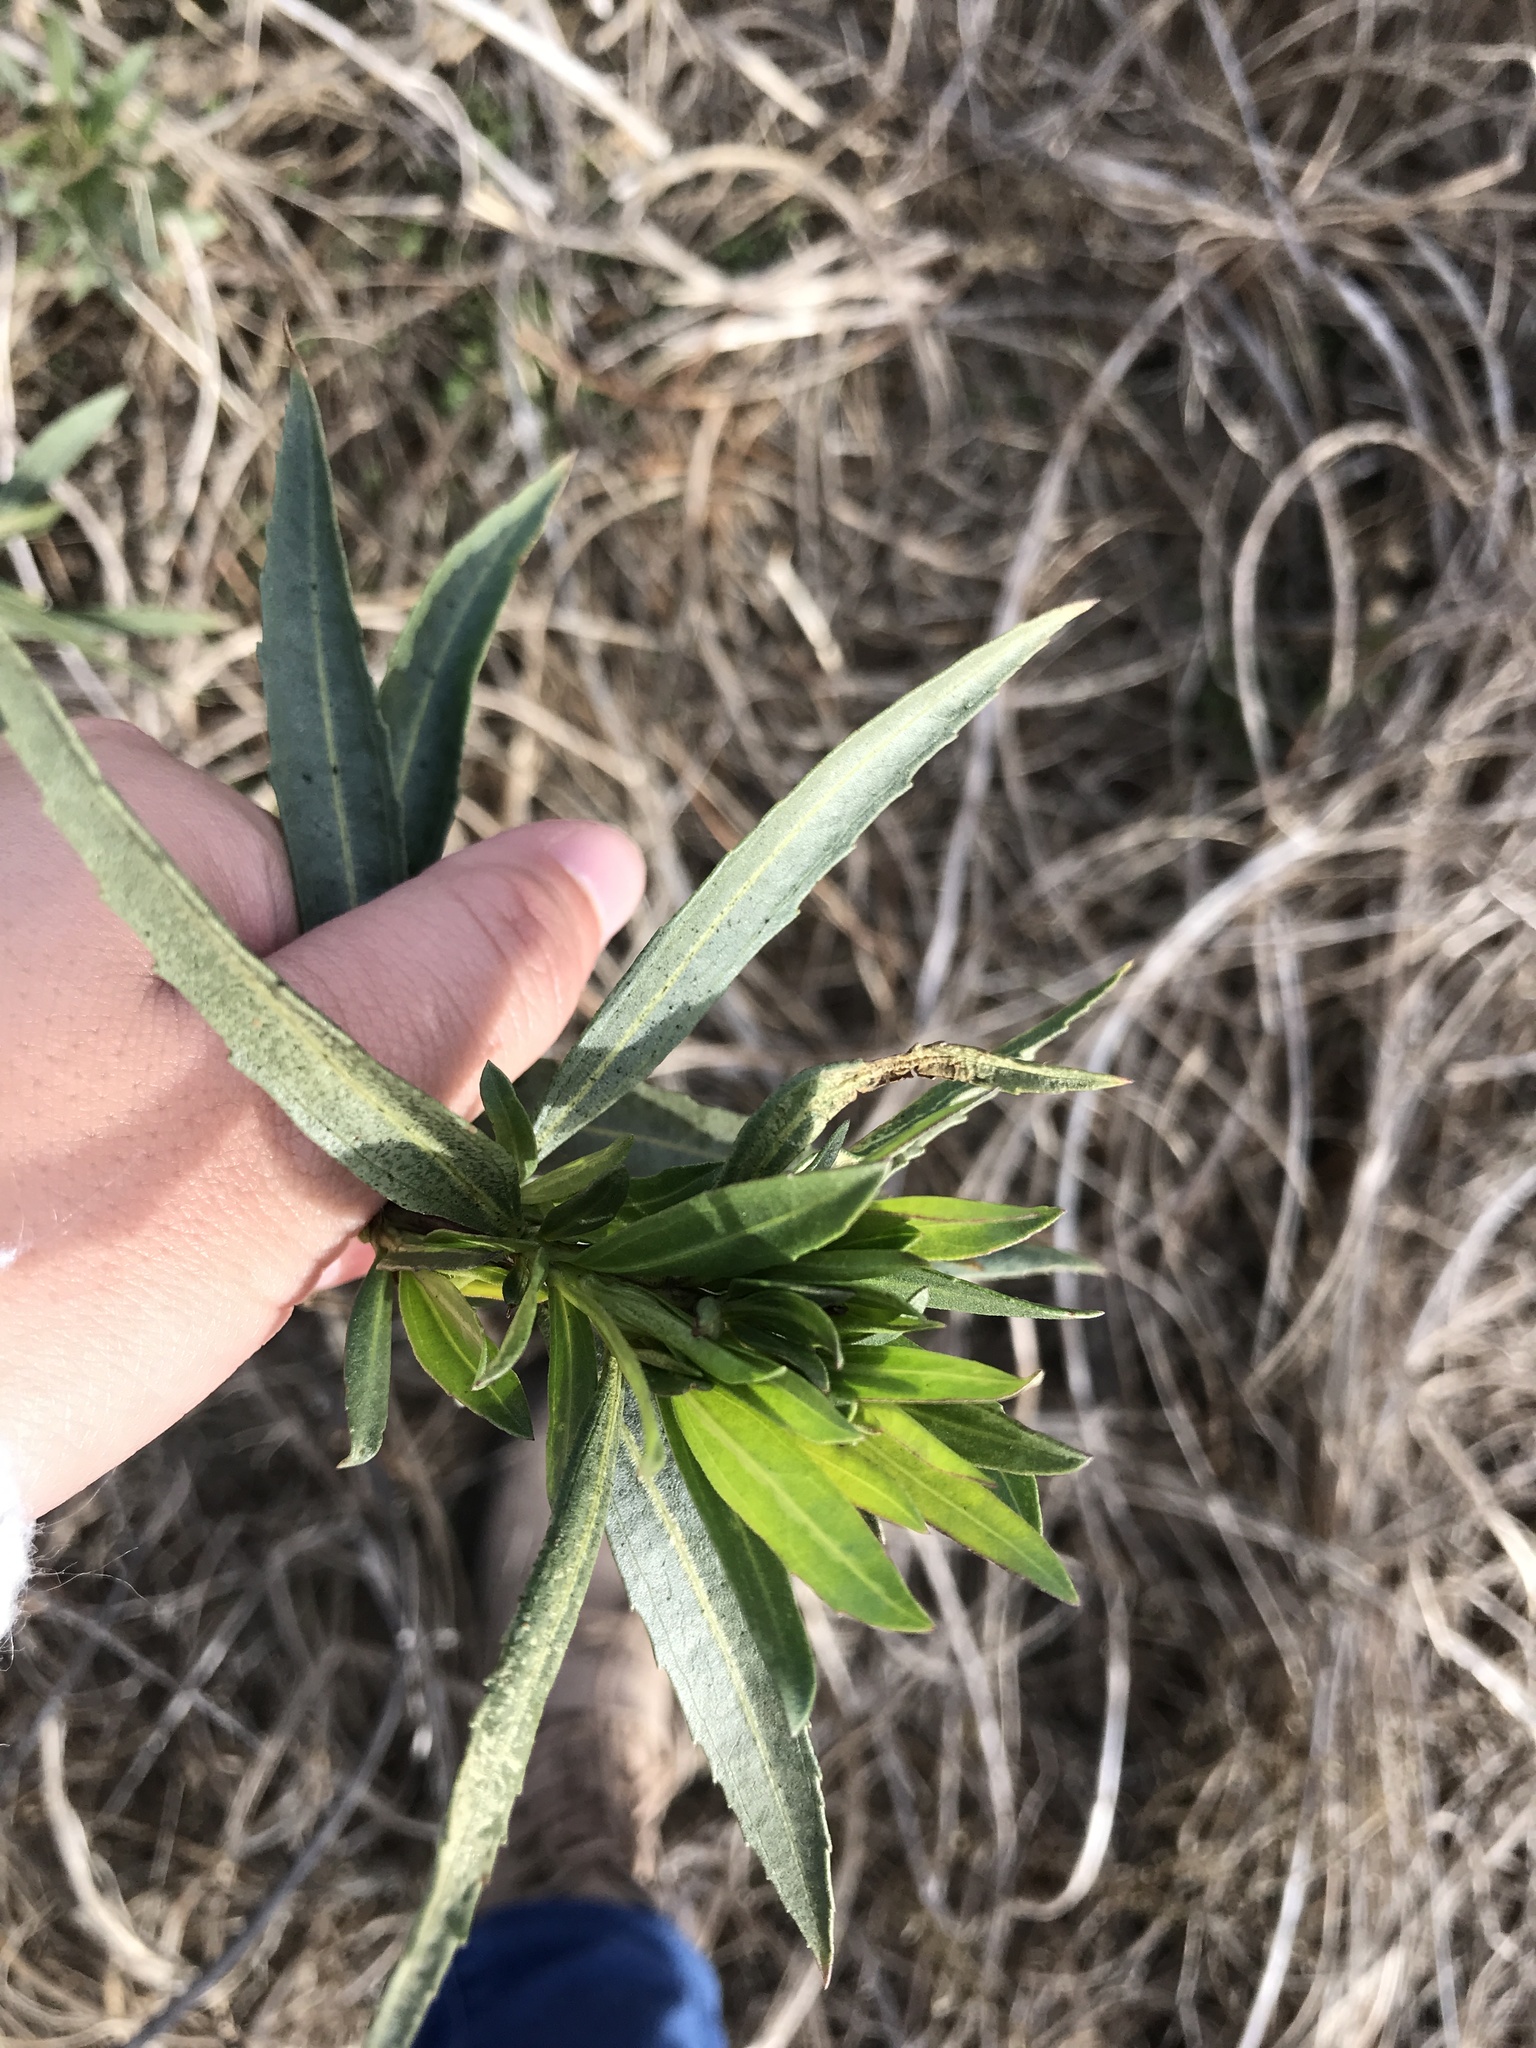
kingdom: Plantae
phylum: Tracheophyta
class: Magnoliopsida
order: Asterales
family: Asteraceae
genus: Baccharis
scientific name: Baccharis salicifolia
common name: Sticky baccharis
